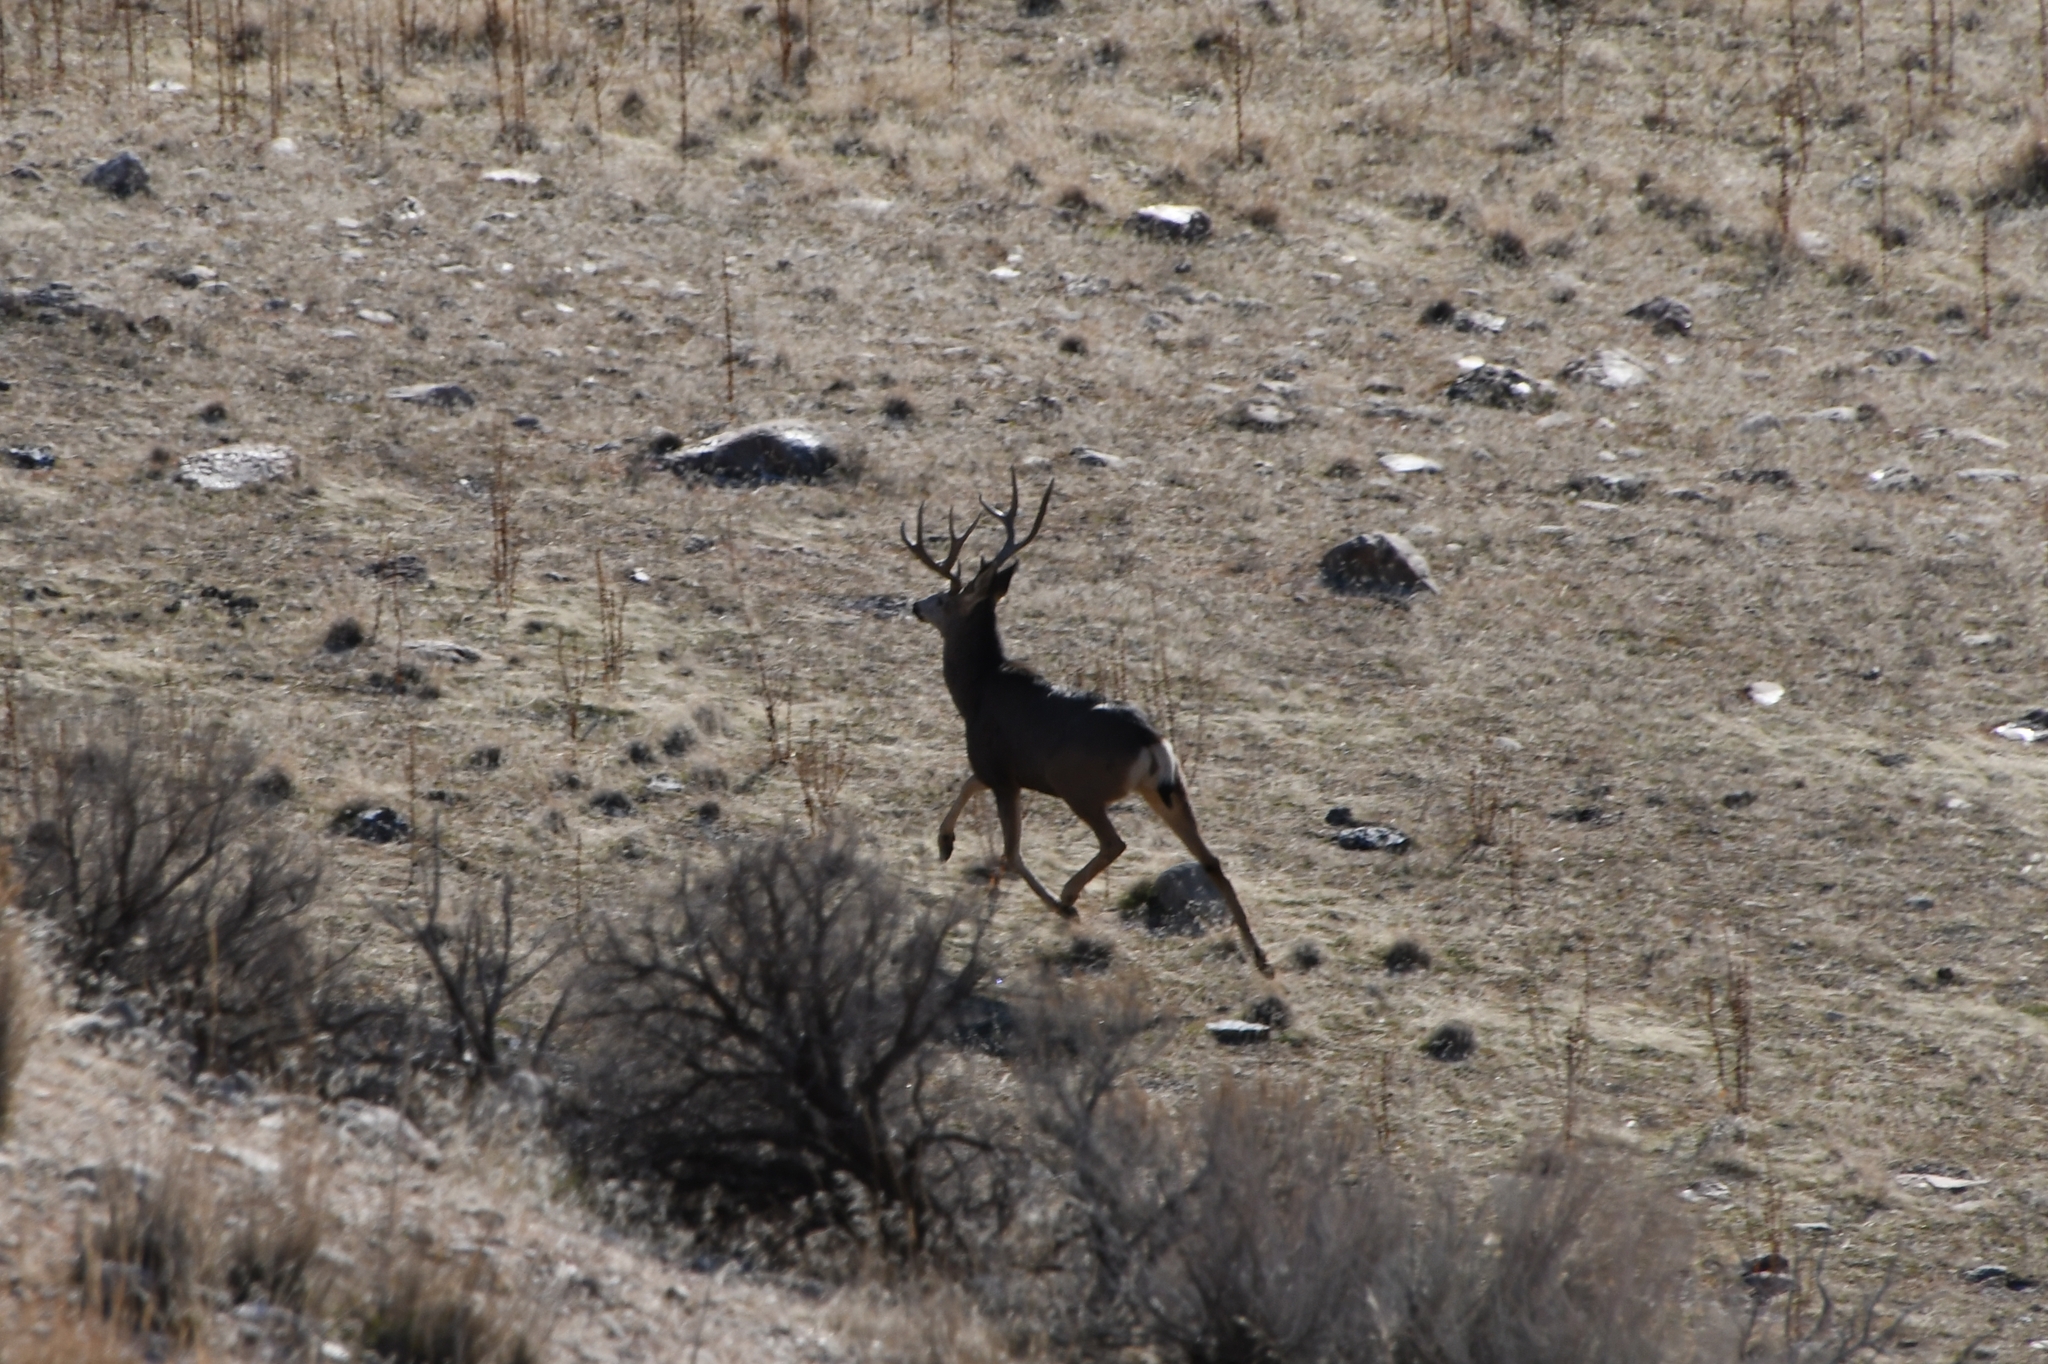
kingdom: Animalia
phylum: Chordata
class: Mammalia
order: Artiodactyla
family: Cervidae
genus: Odocoileus
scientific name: Odocoileus hemionus
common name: Mule deer
